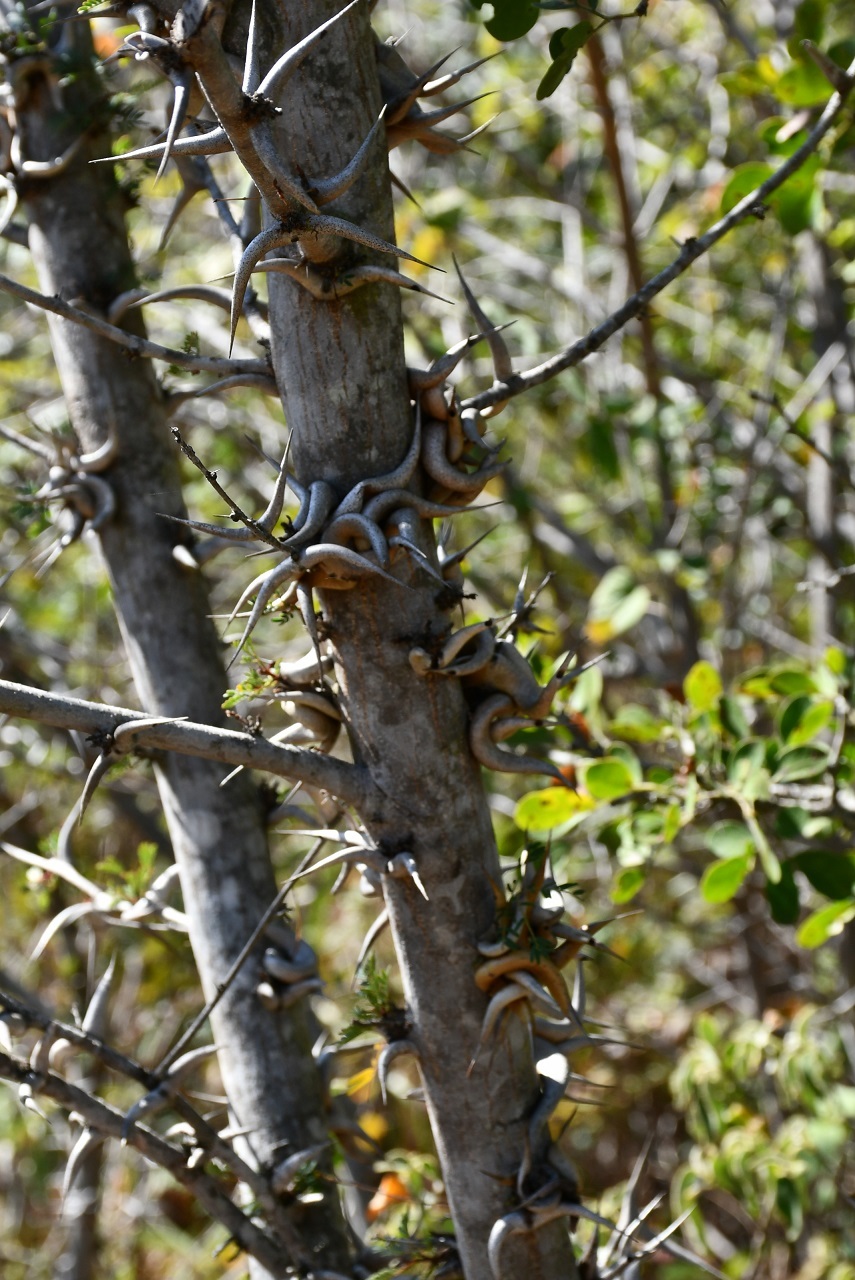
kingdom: Plantae
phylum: Tracheophyta
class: Magnoliopsida
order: Fabales
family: Fabaceae
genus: Vachellia
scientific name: Vachellia cornigera
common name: Bullhorn wattle
